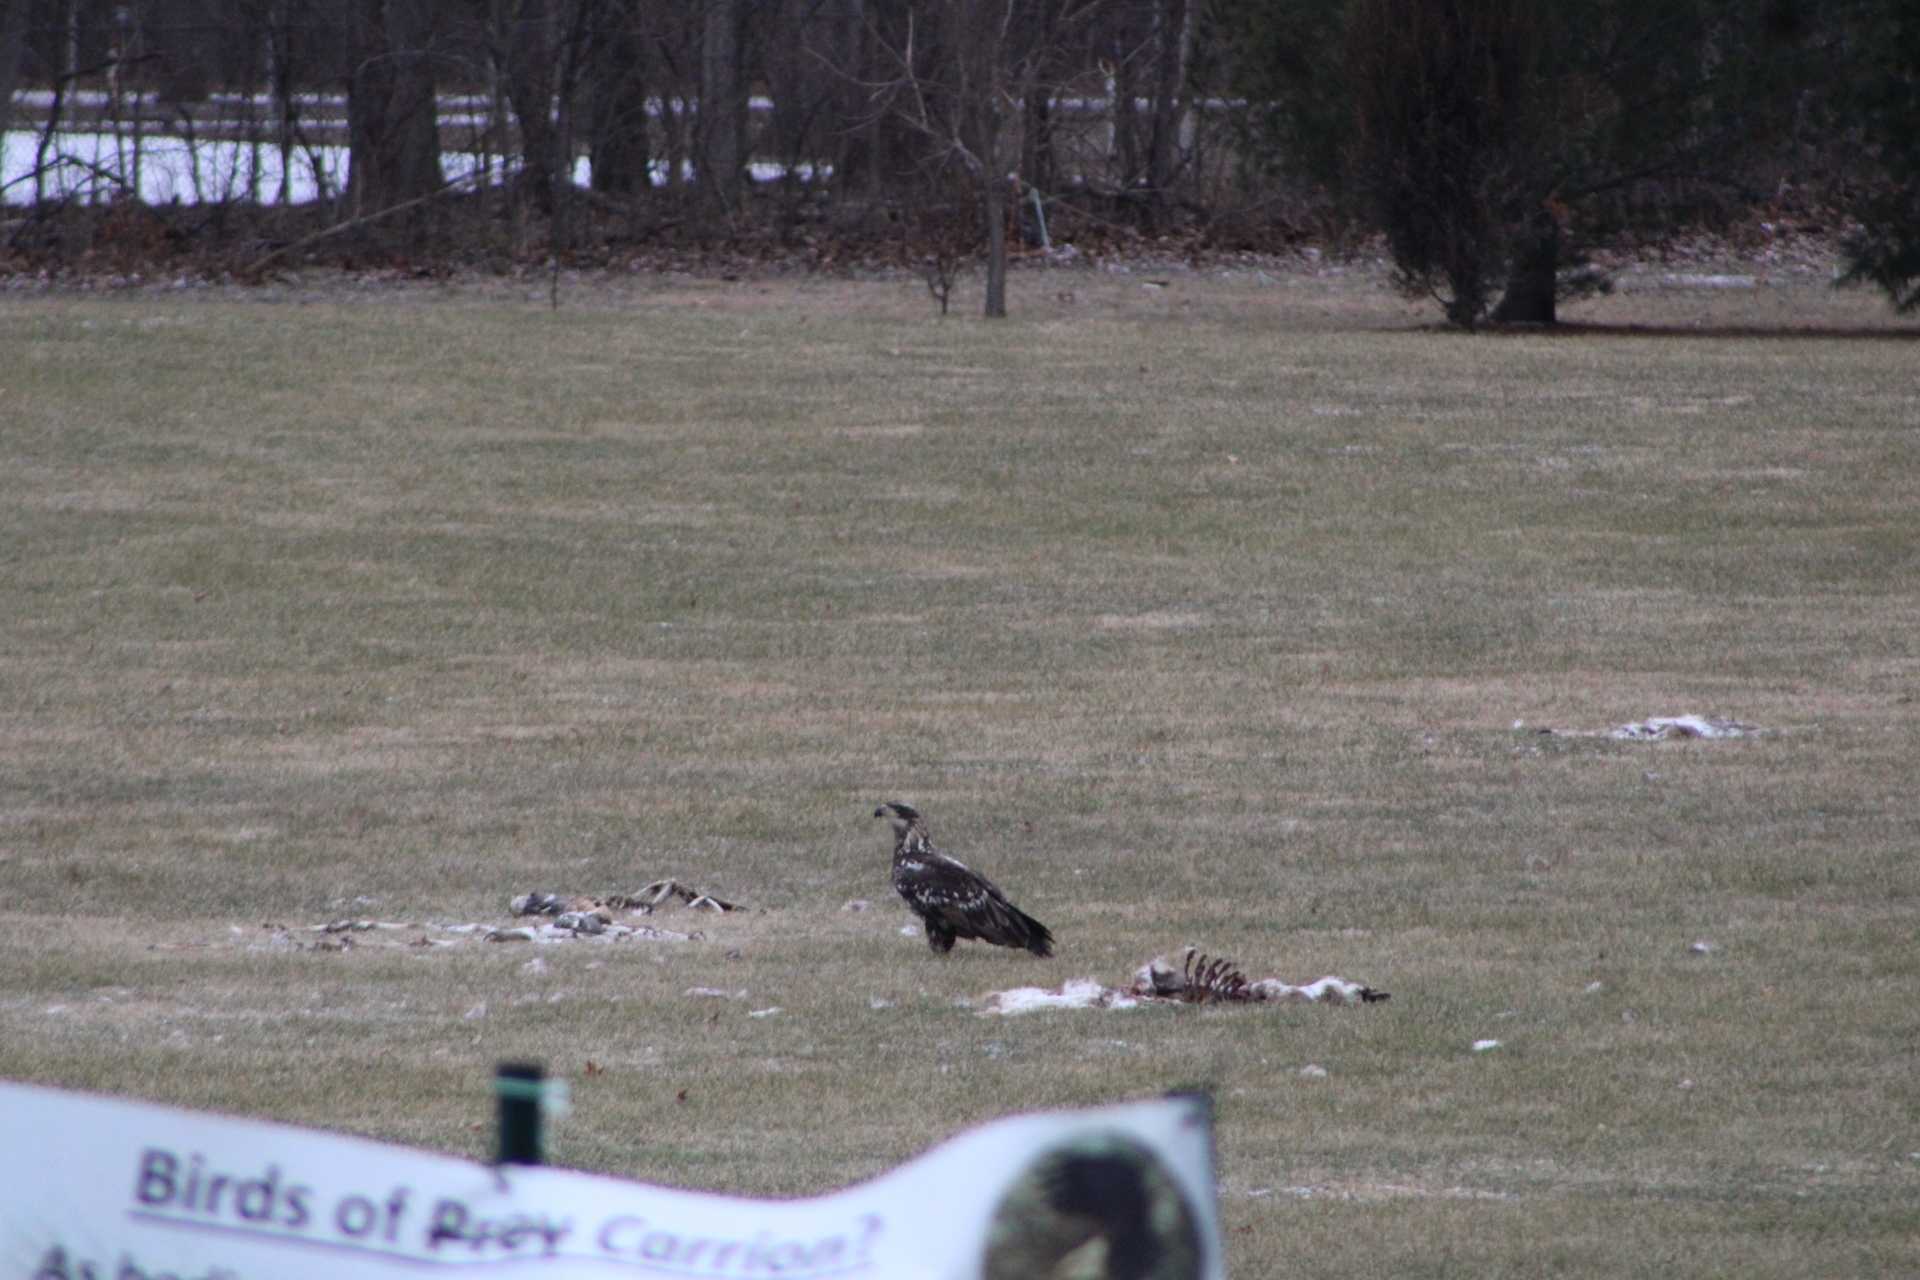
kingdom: Animalia
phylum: Chordata
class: Aves
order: Accipitriformes
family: Accipitridae
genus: Haliaeetus
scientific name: Haliaeetus leucocephalus
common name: Bald eagle
